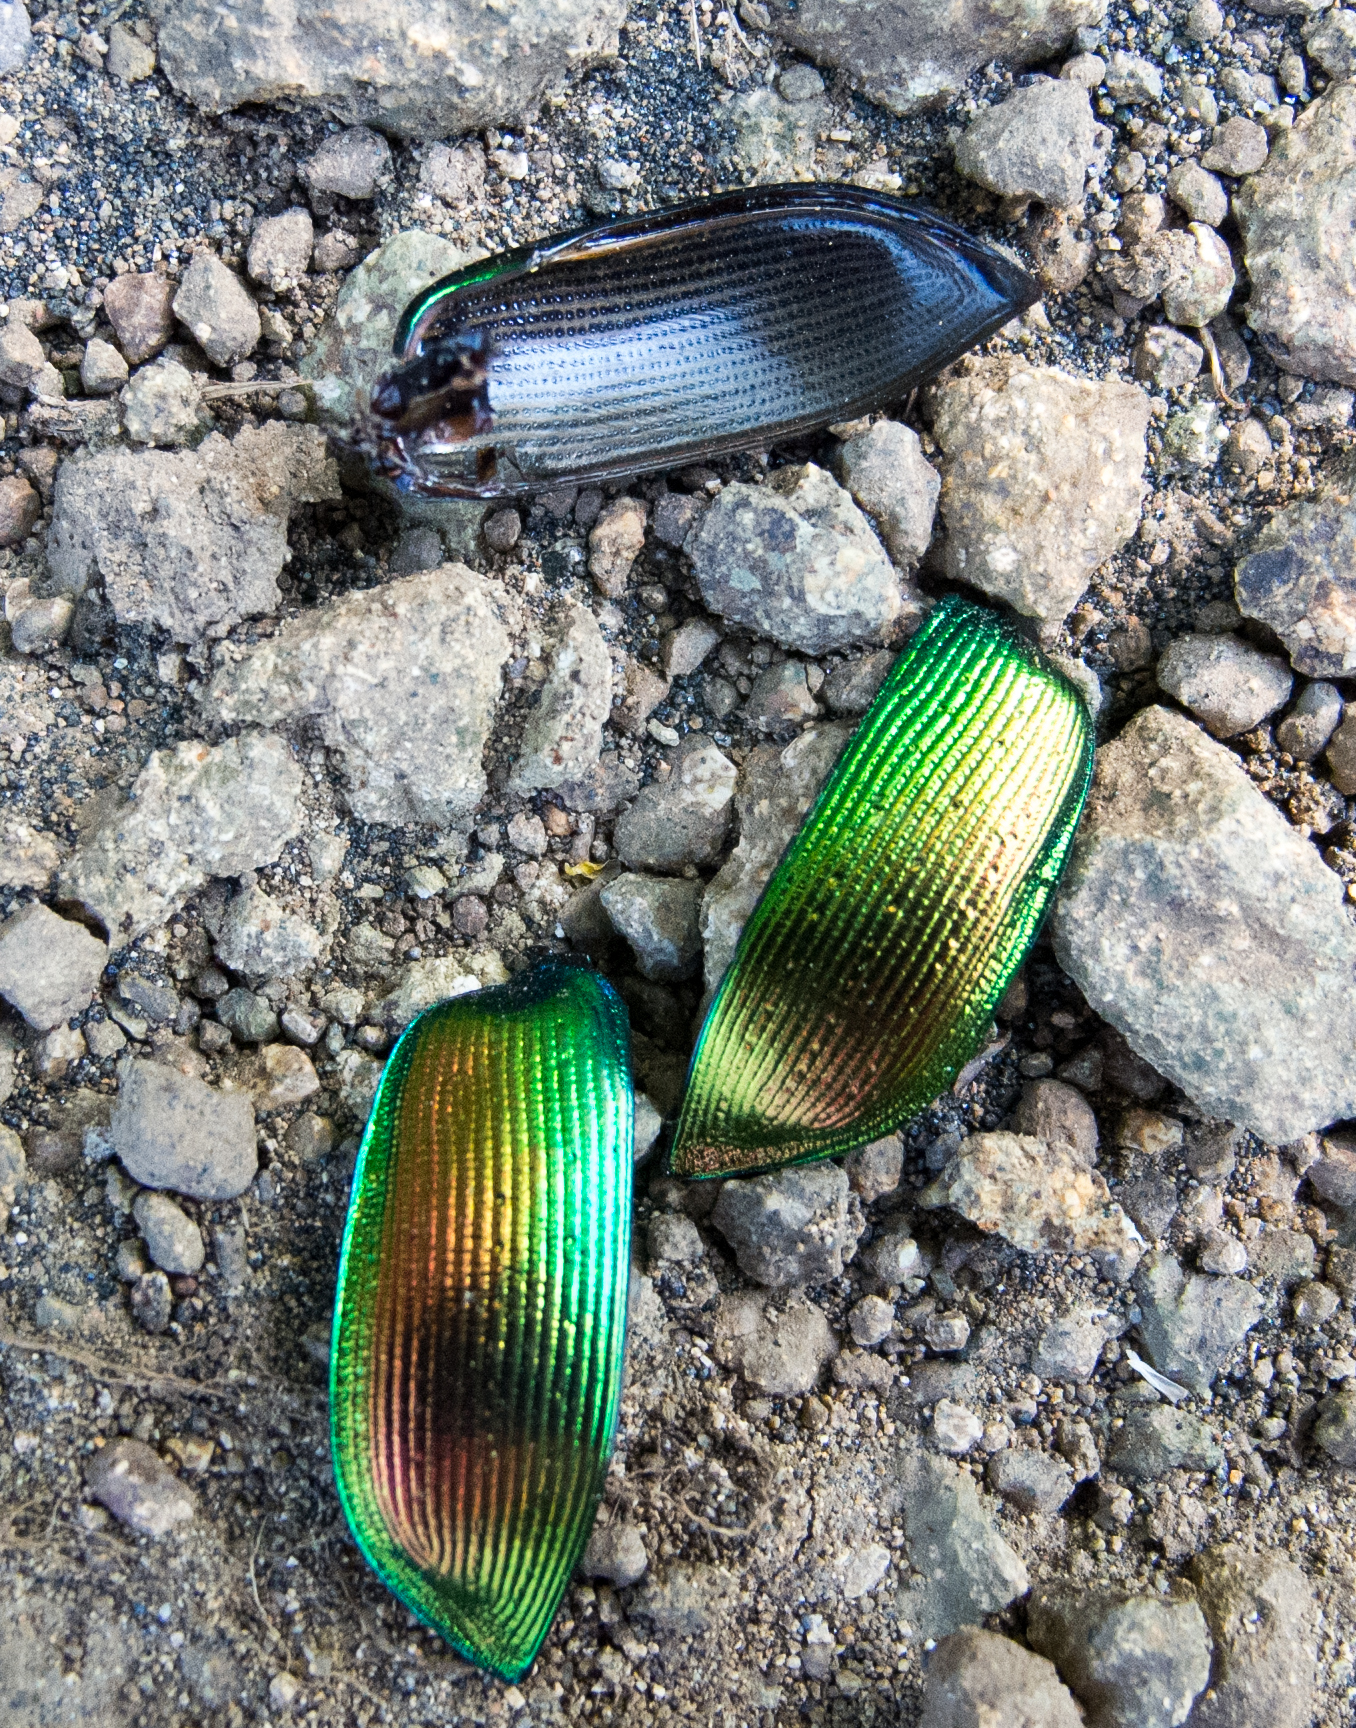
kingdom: Animalia
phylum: Arthropoda
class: Insecta
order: Coleoptera
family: Carabidae
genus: Calosoma
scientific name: Calosoma sycophanta
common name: Forest caterpillar hunter
